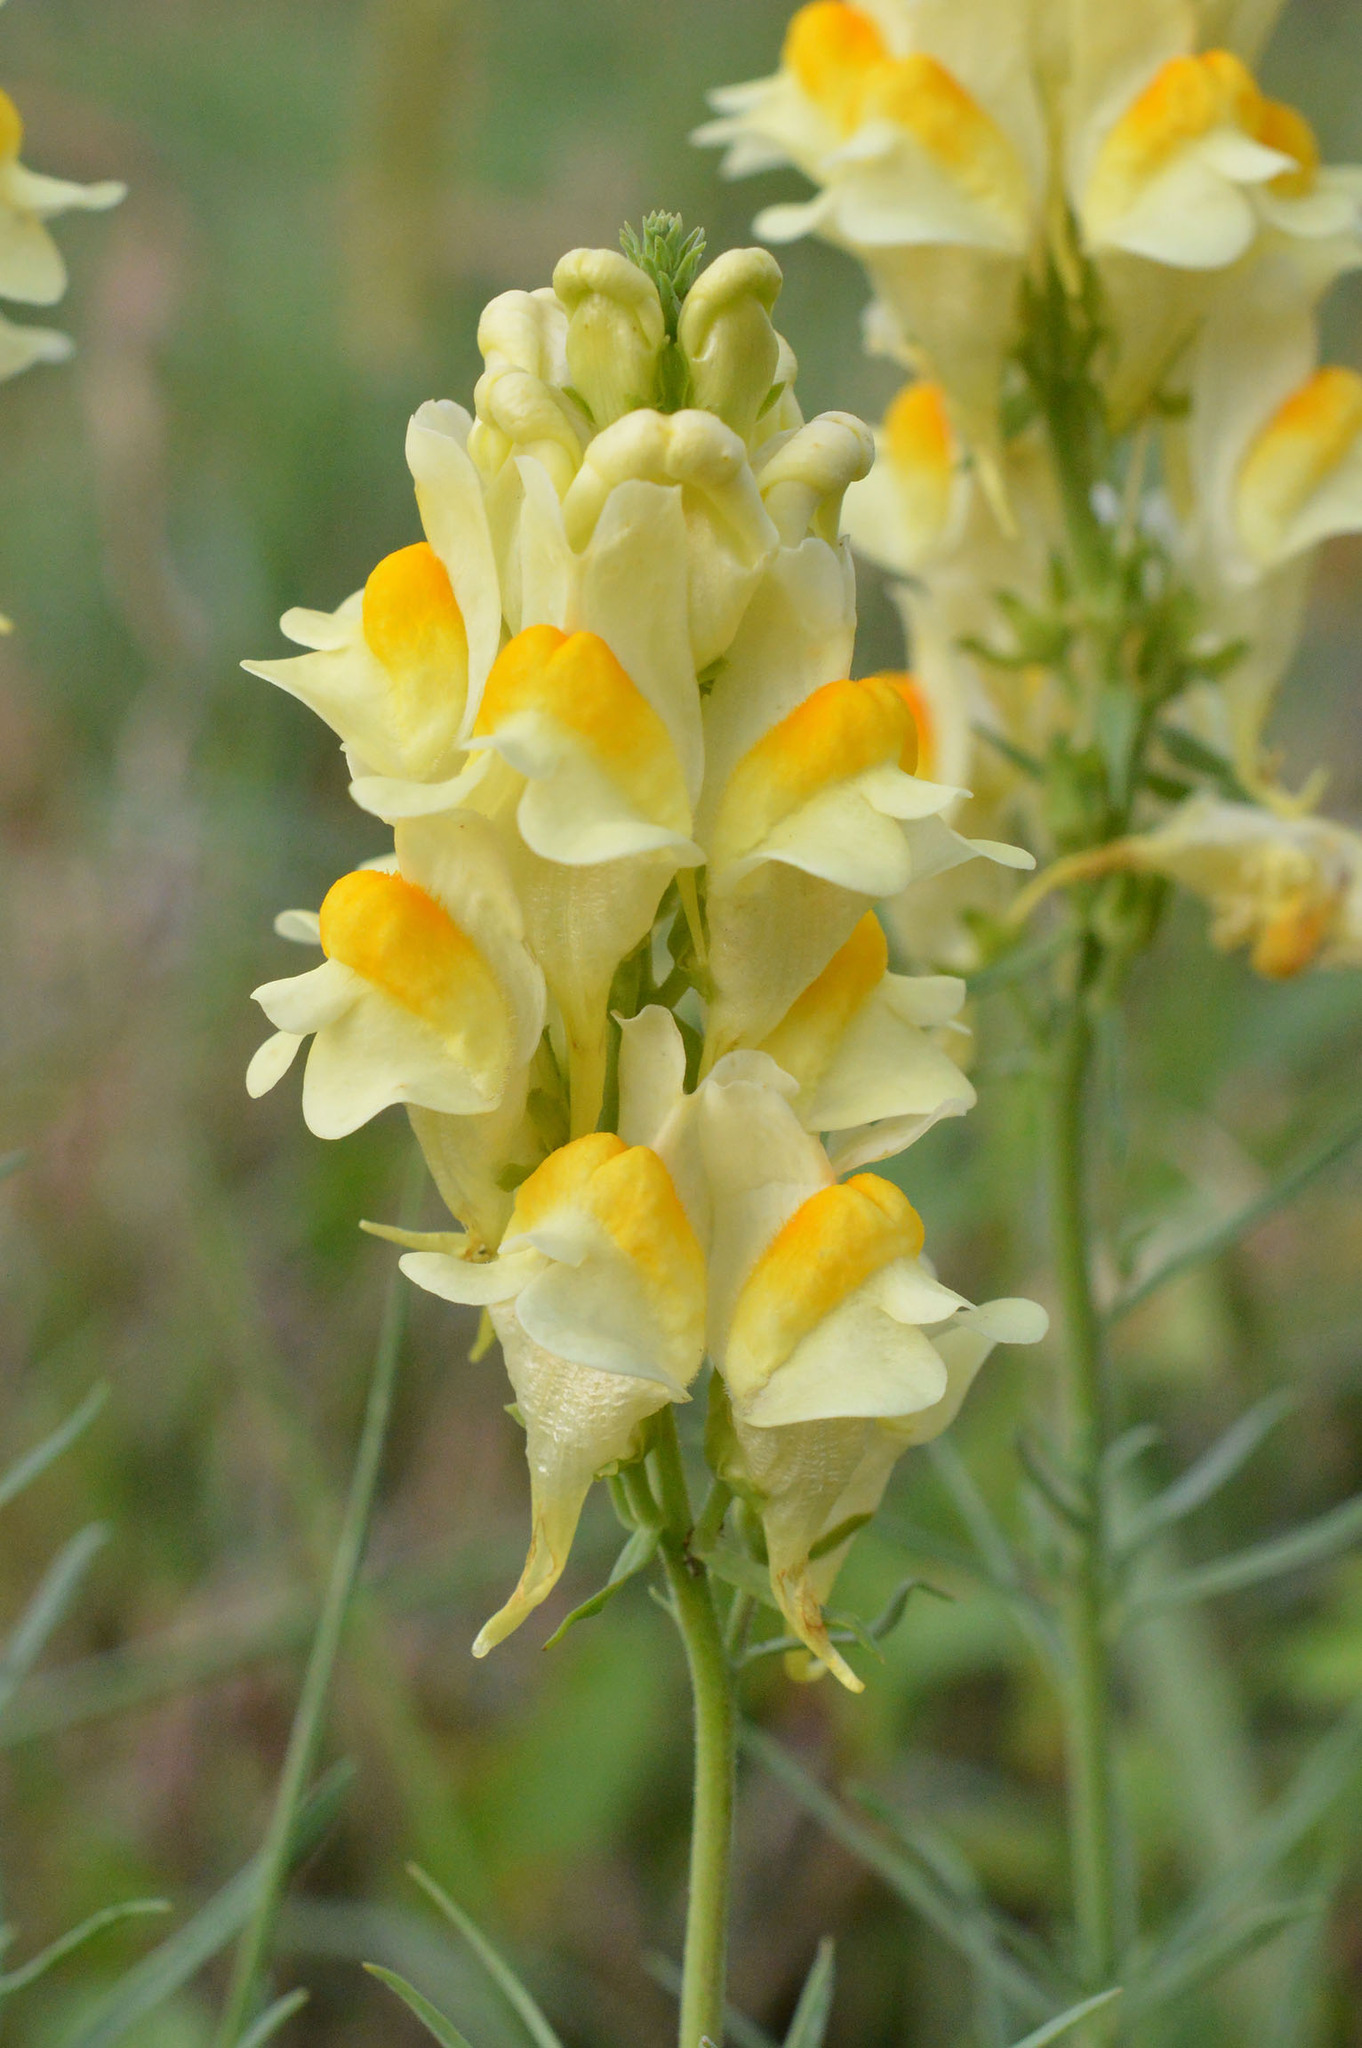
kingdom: Plantae
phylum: Tracheophyta
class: Magnoliopsida
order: Lamiales
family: Plantaginaceae
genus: Linaria
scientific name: Linaria vulgaris
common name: Butter and eggs
